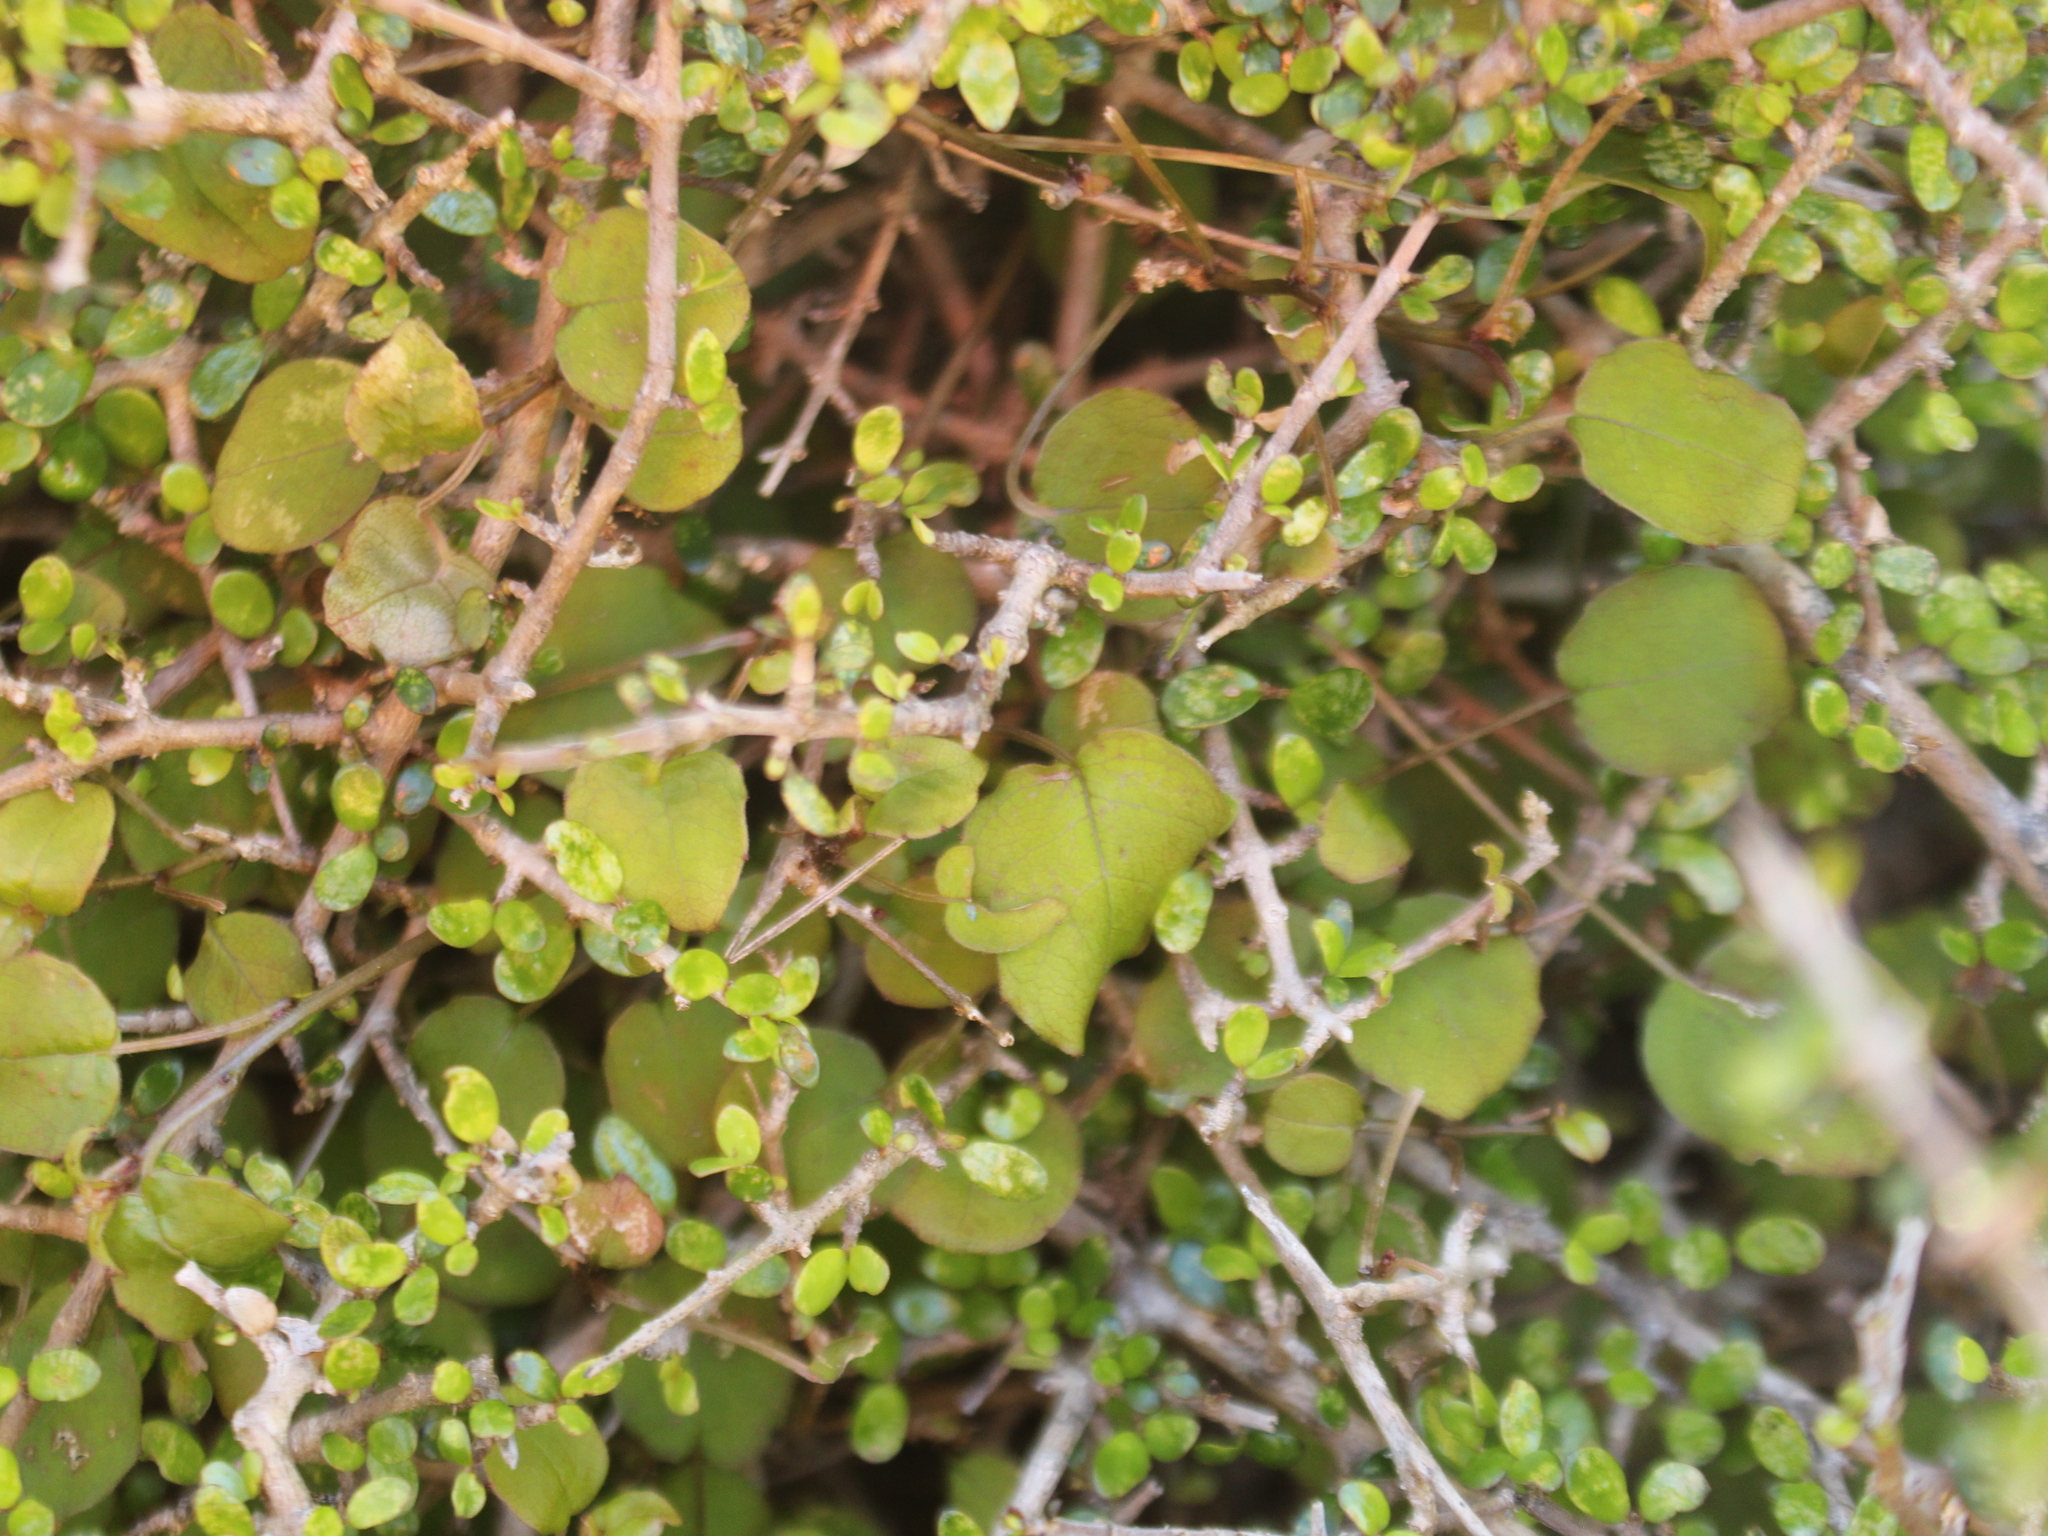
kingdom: Plantae
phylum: Tracheophyta
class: Magnoliopsida
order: Myrtales
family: Onagraceae
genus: Fuchsia
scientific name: Fuchsia perscandens
